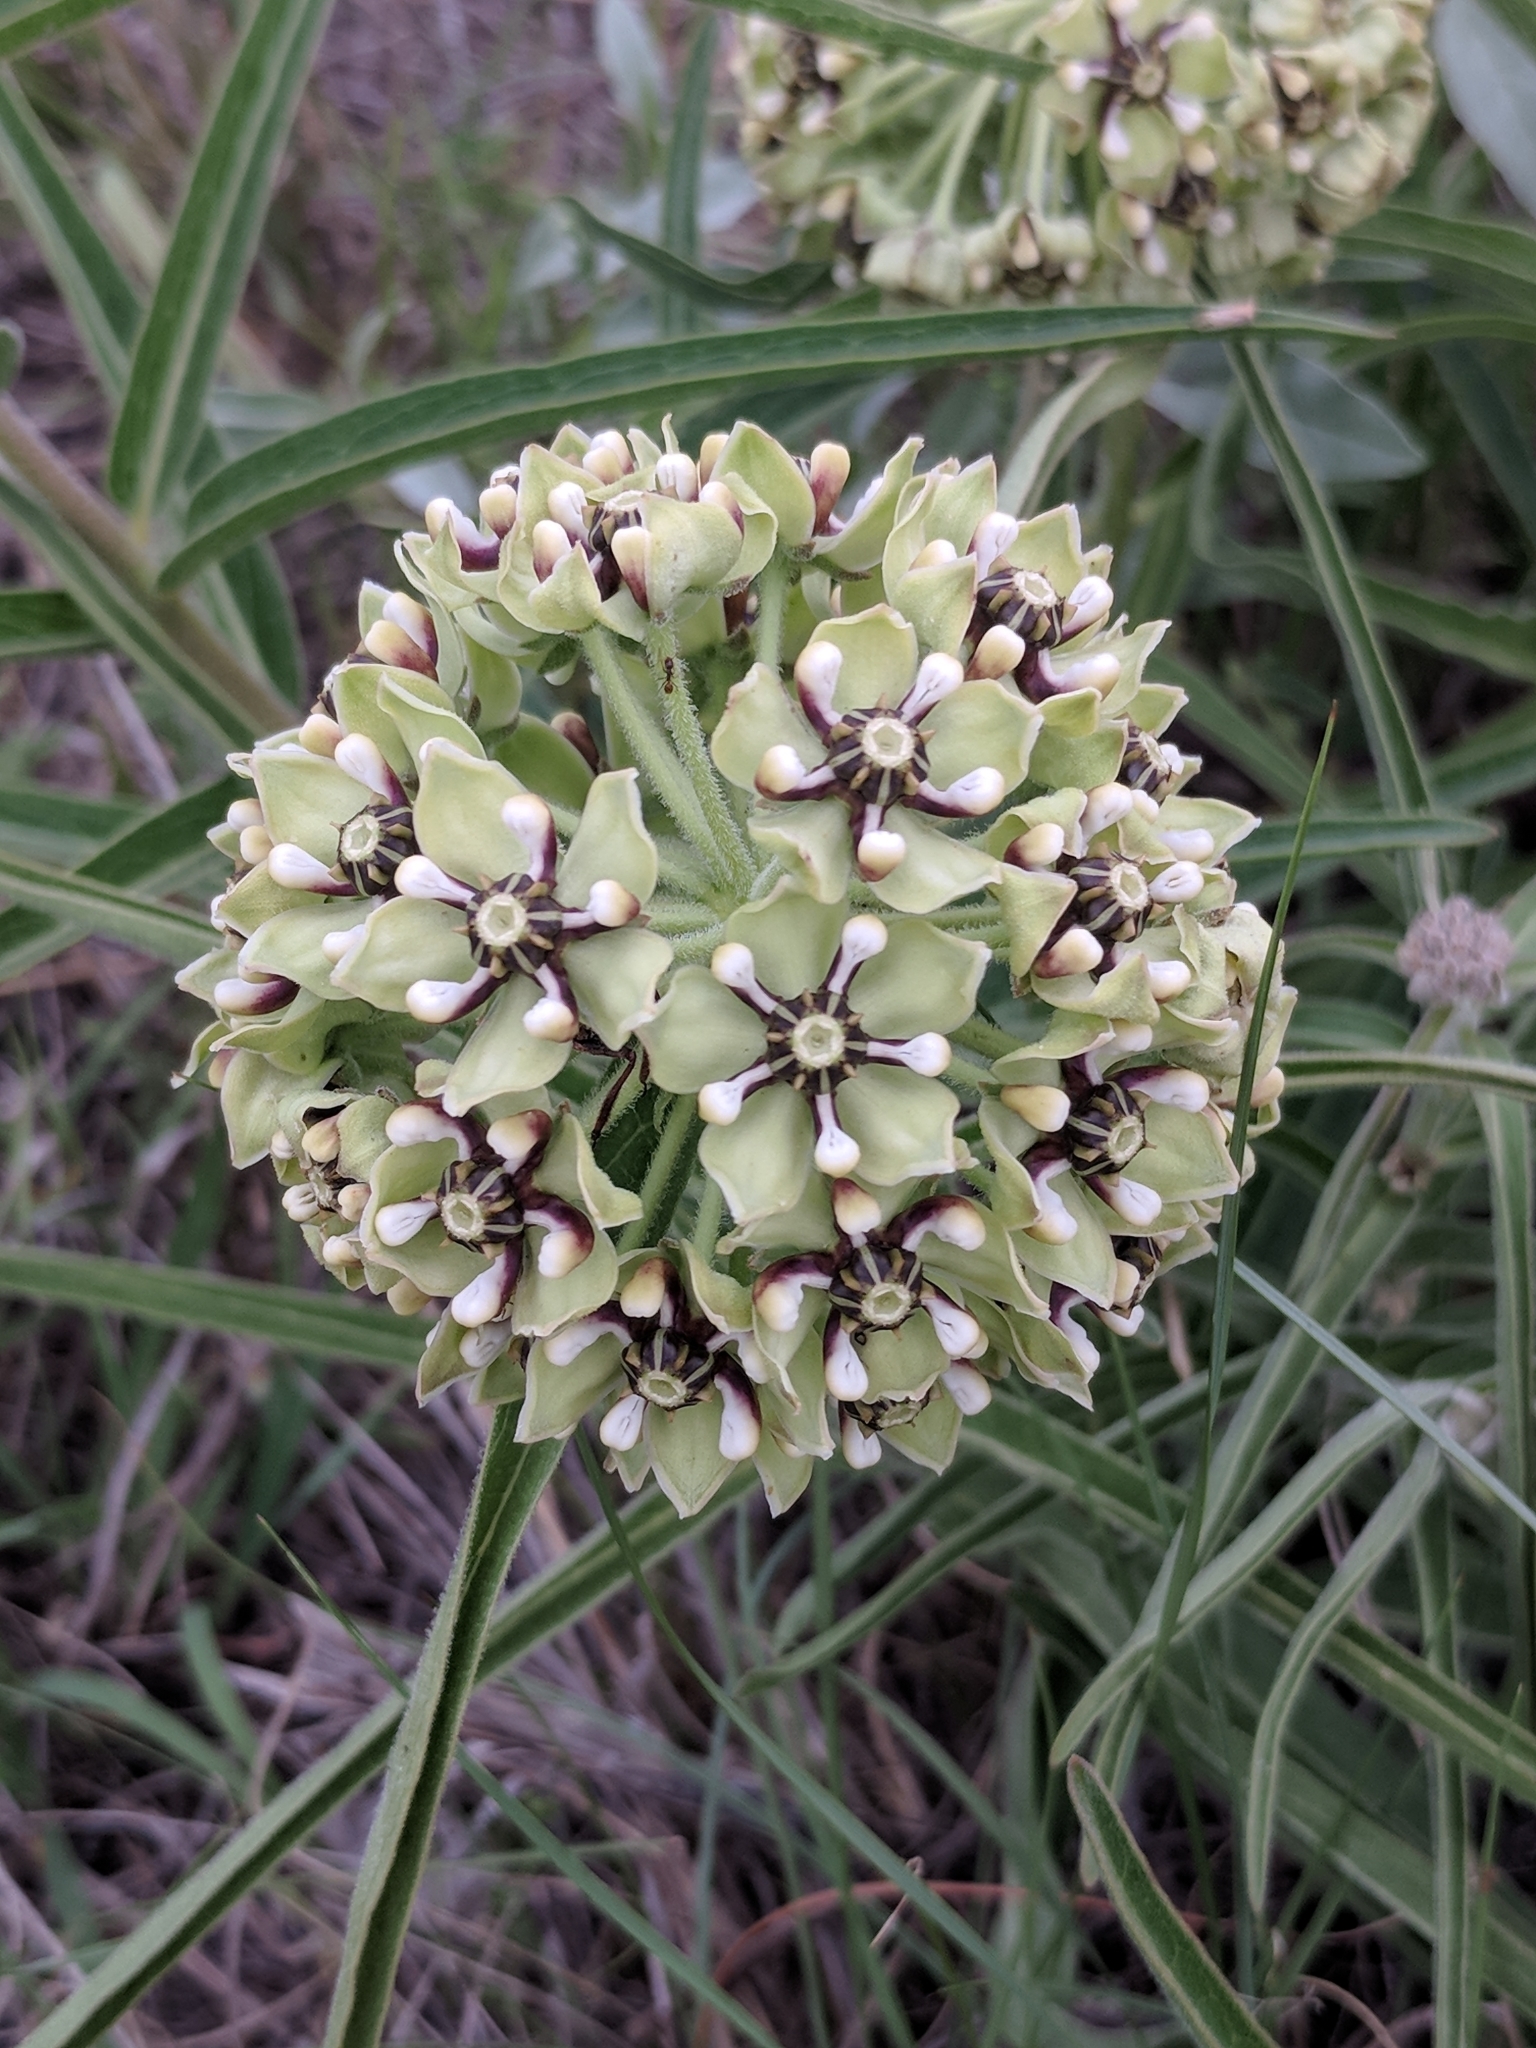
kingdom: Plantae
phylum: Tracheophyta
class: Magnoliopsida
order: Gentianales
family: Apocynaceae
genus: Asclepias
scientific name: Asclepias asperula
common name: Antelope horns
